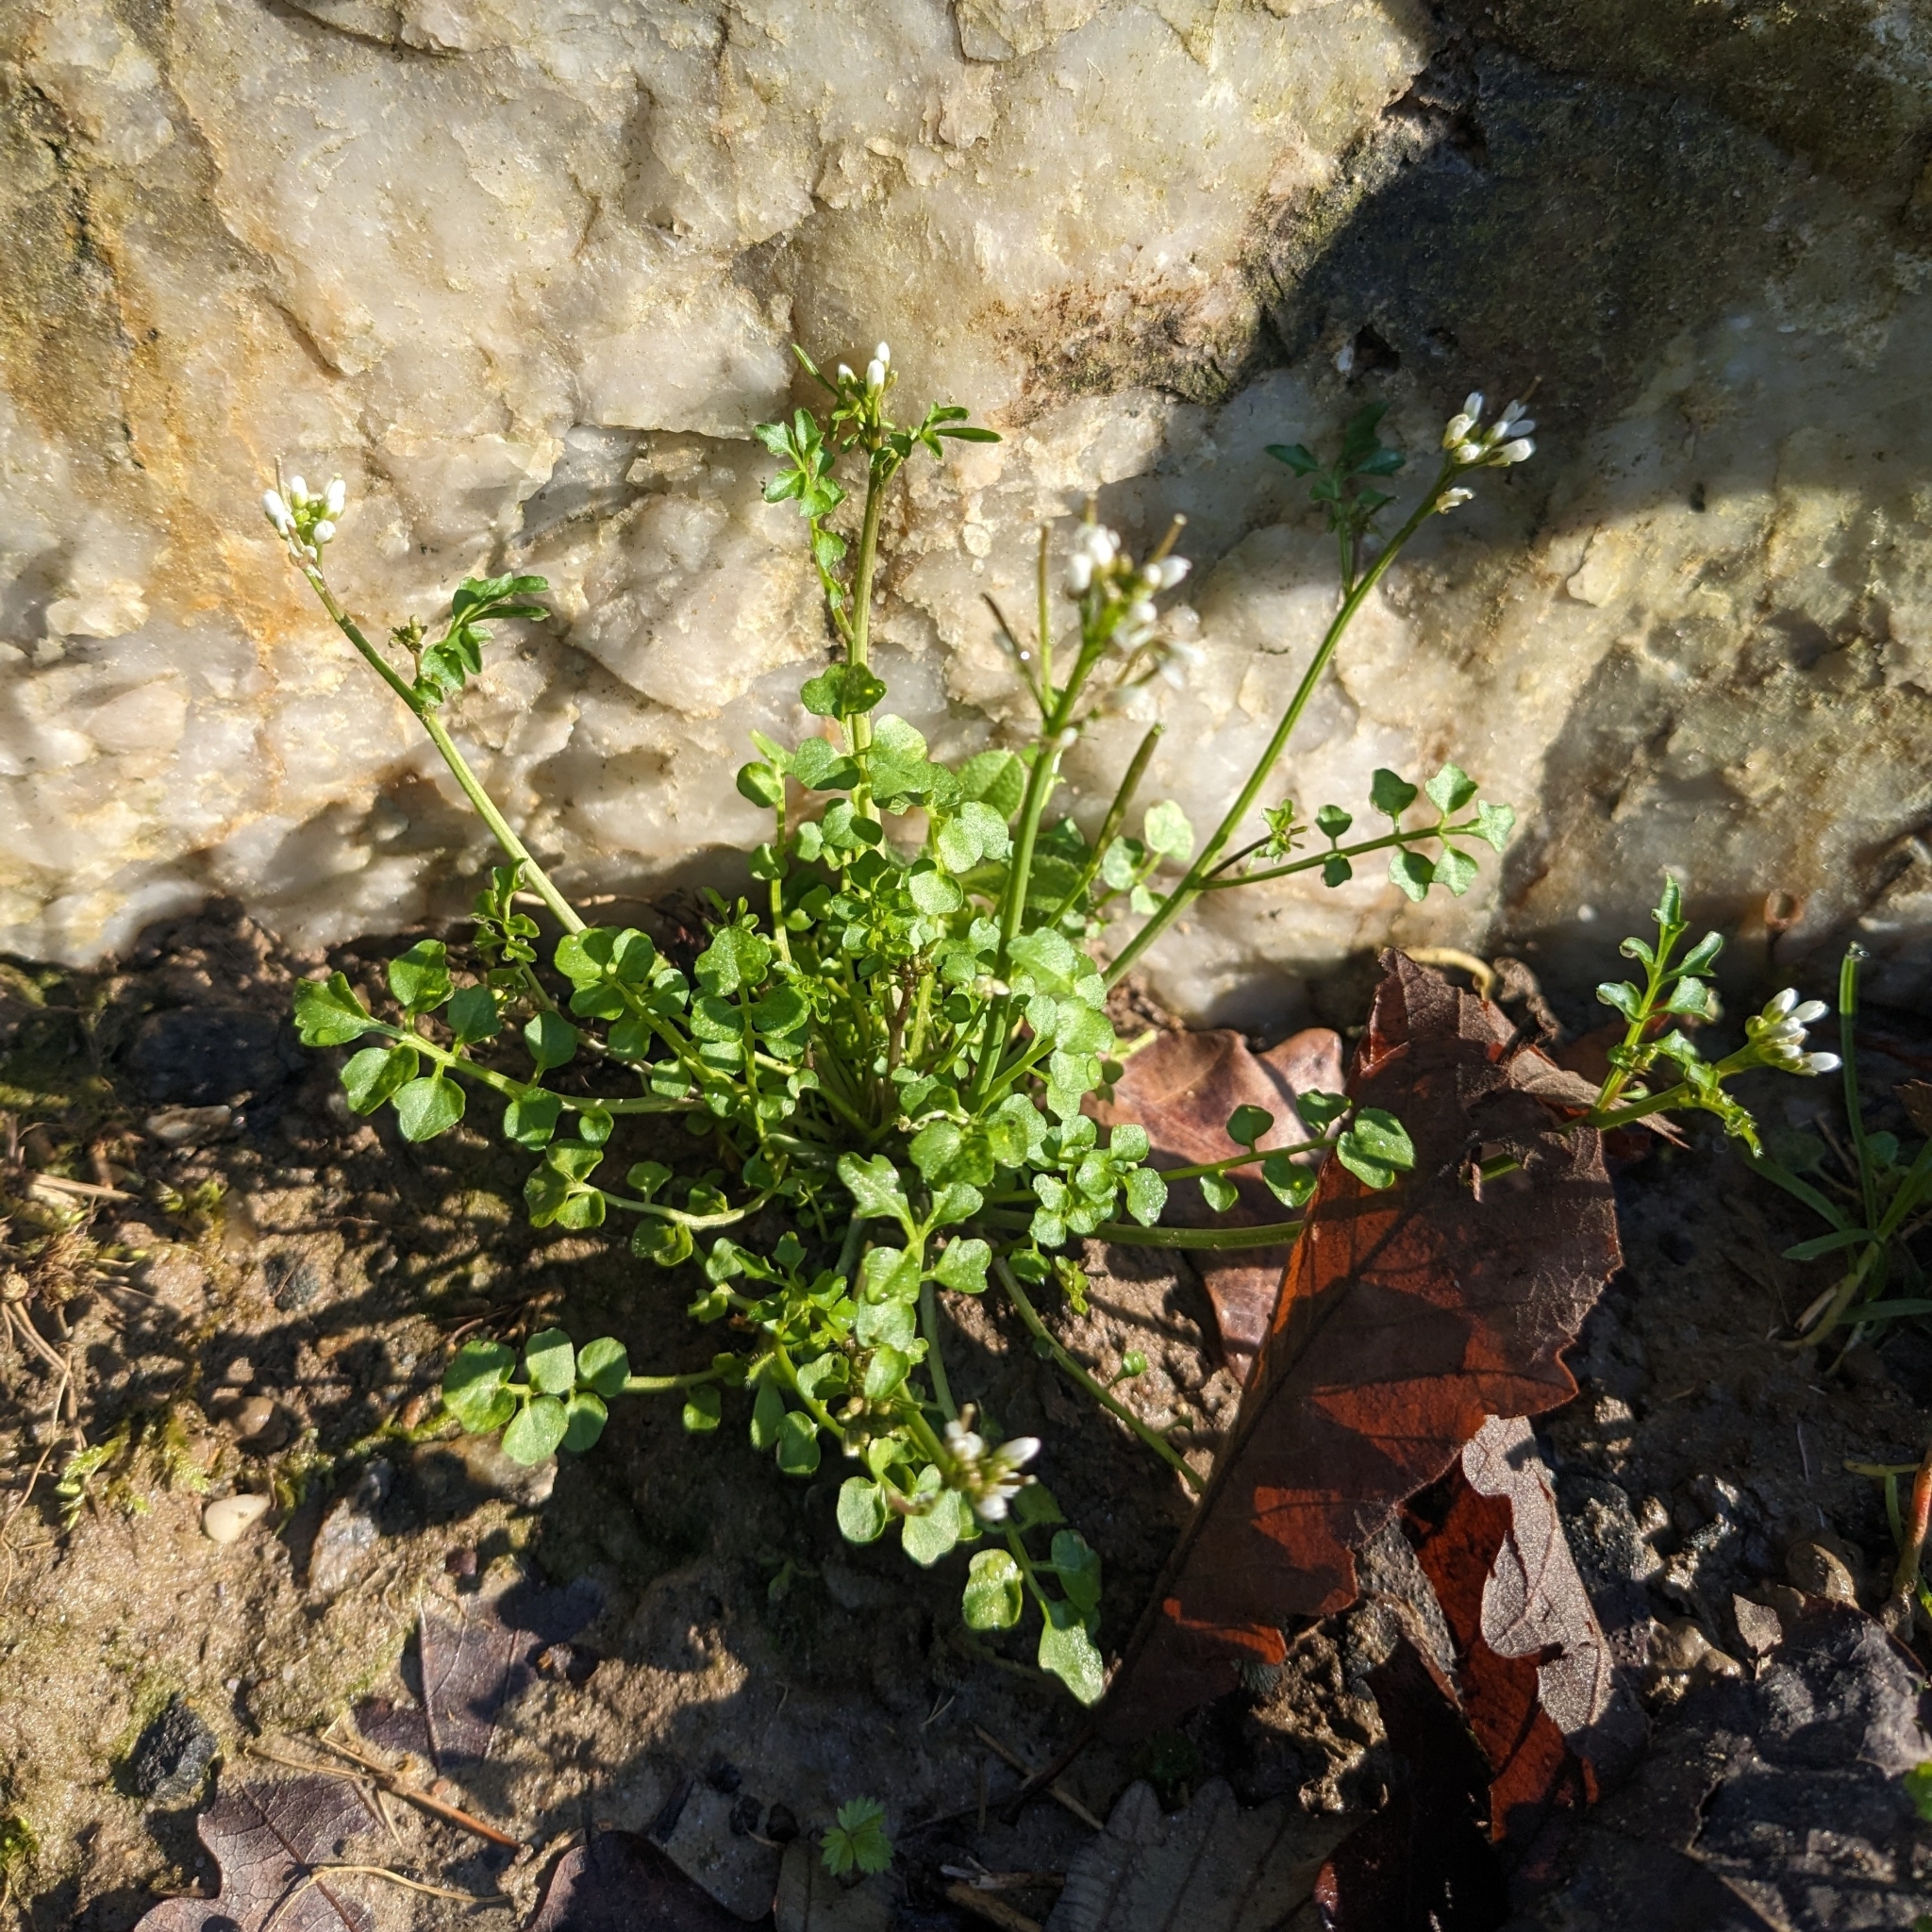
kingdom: Plantae
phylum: Tracheophyta
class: Magnoliopsida
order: Brassicales
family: Brassicaceae
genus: Cardamine
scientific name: Cardamine hirsuta
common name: Hairy bittercress
